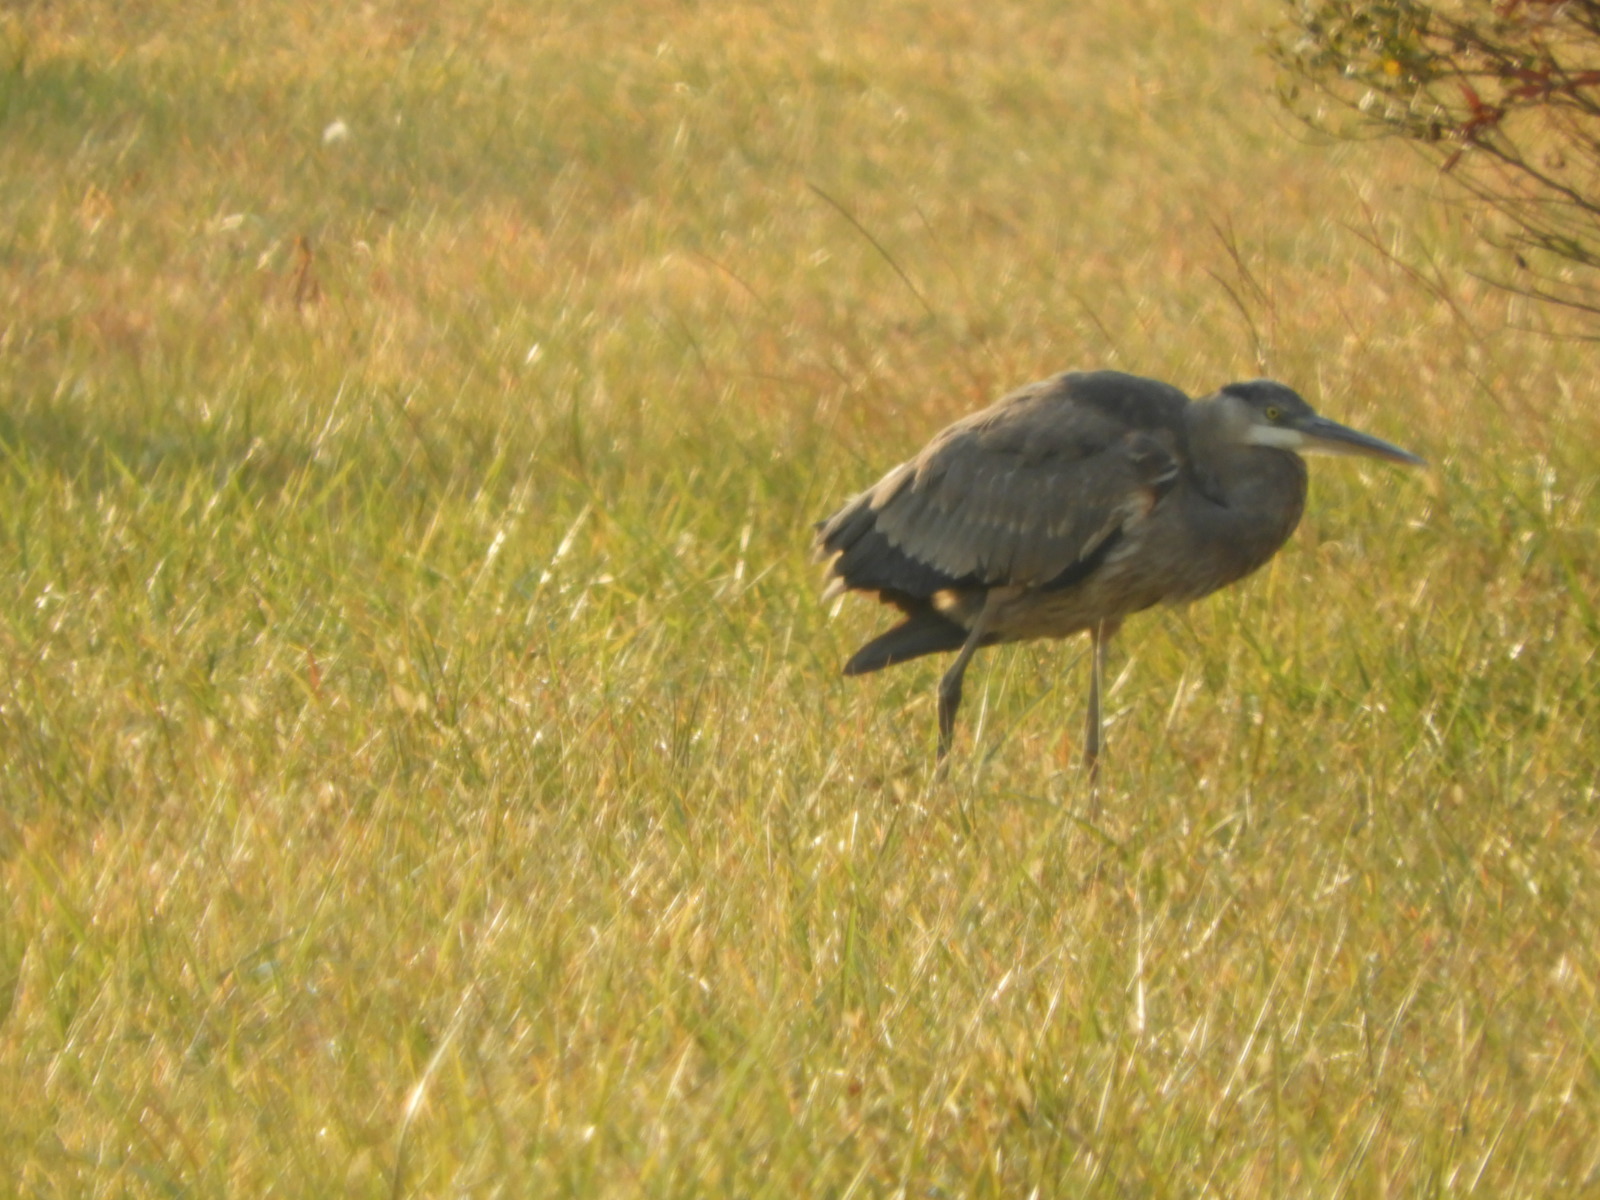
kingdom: Animalia
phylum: Chordata
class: Aves
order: Pelecaniformes
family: Ardeidae
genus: Ardea
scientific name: Ardea herodias
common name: Great blue heron
